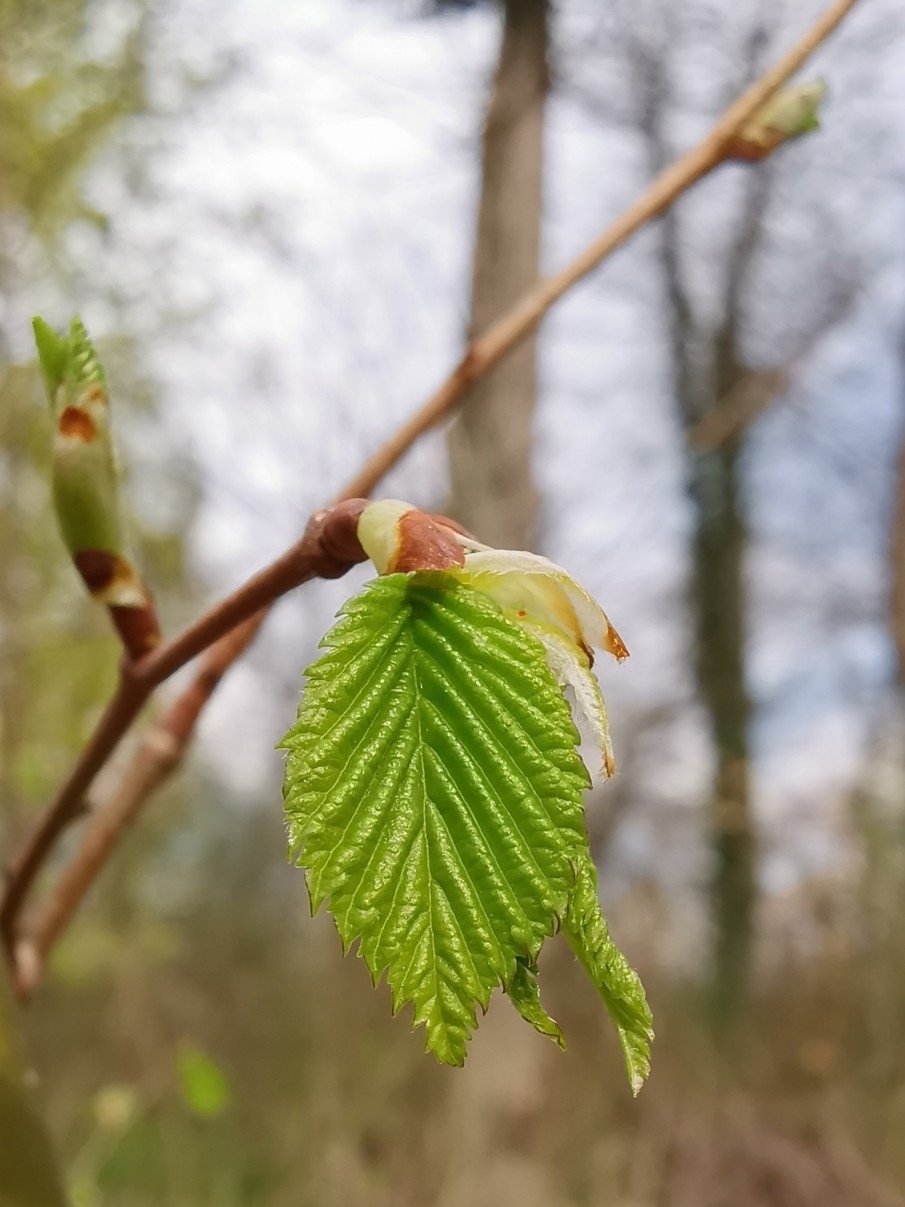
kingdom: Plantae
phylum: Tracheophyta
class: Magnoliopsida
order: Fagales
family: Betulaceae
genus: Corylus
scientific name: Corylus avellana
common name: European hazel
